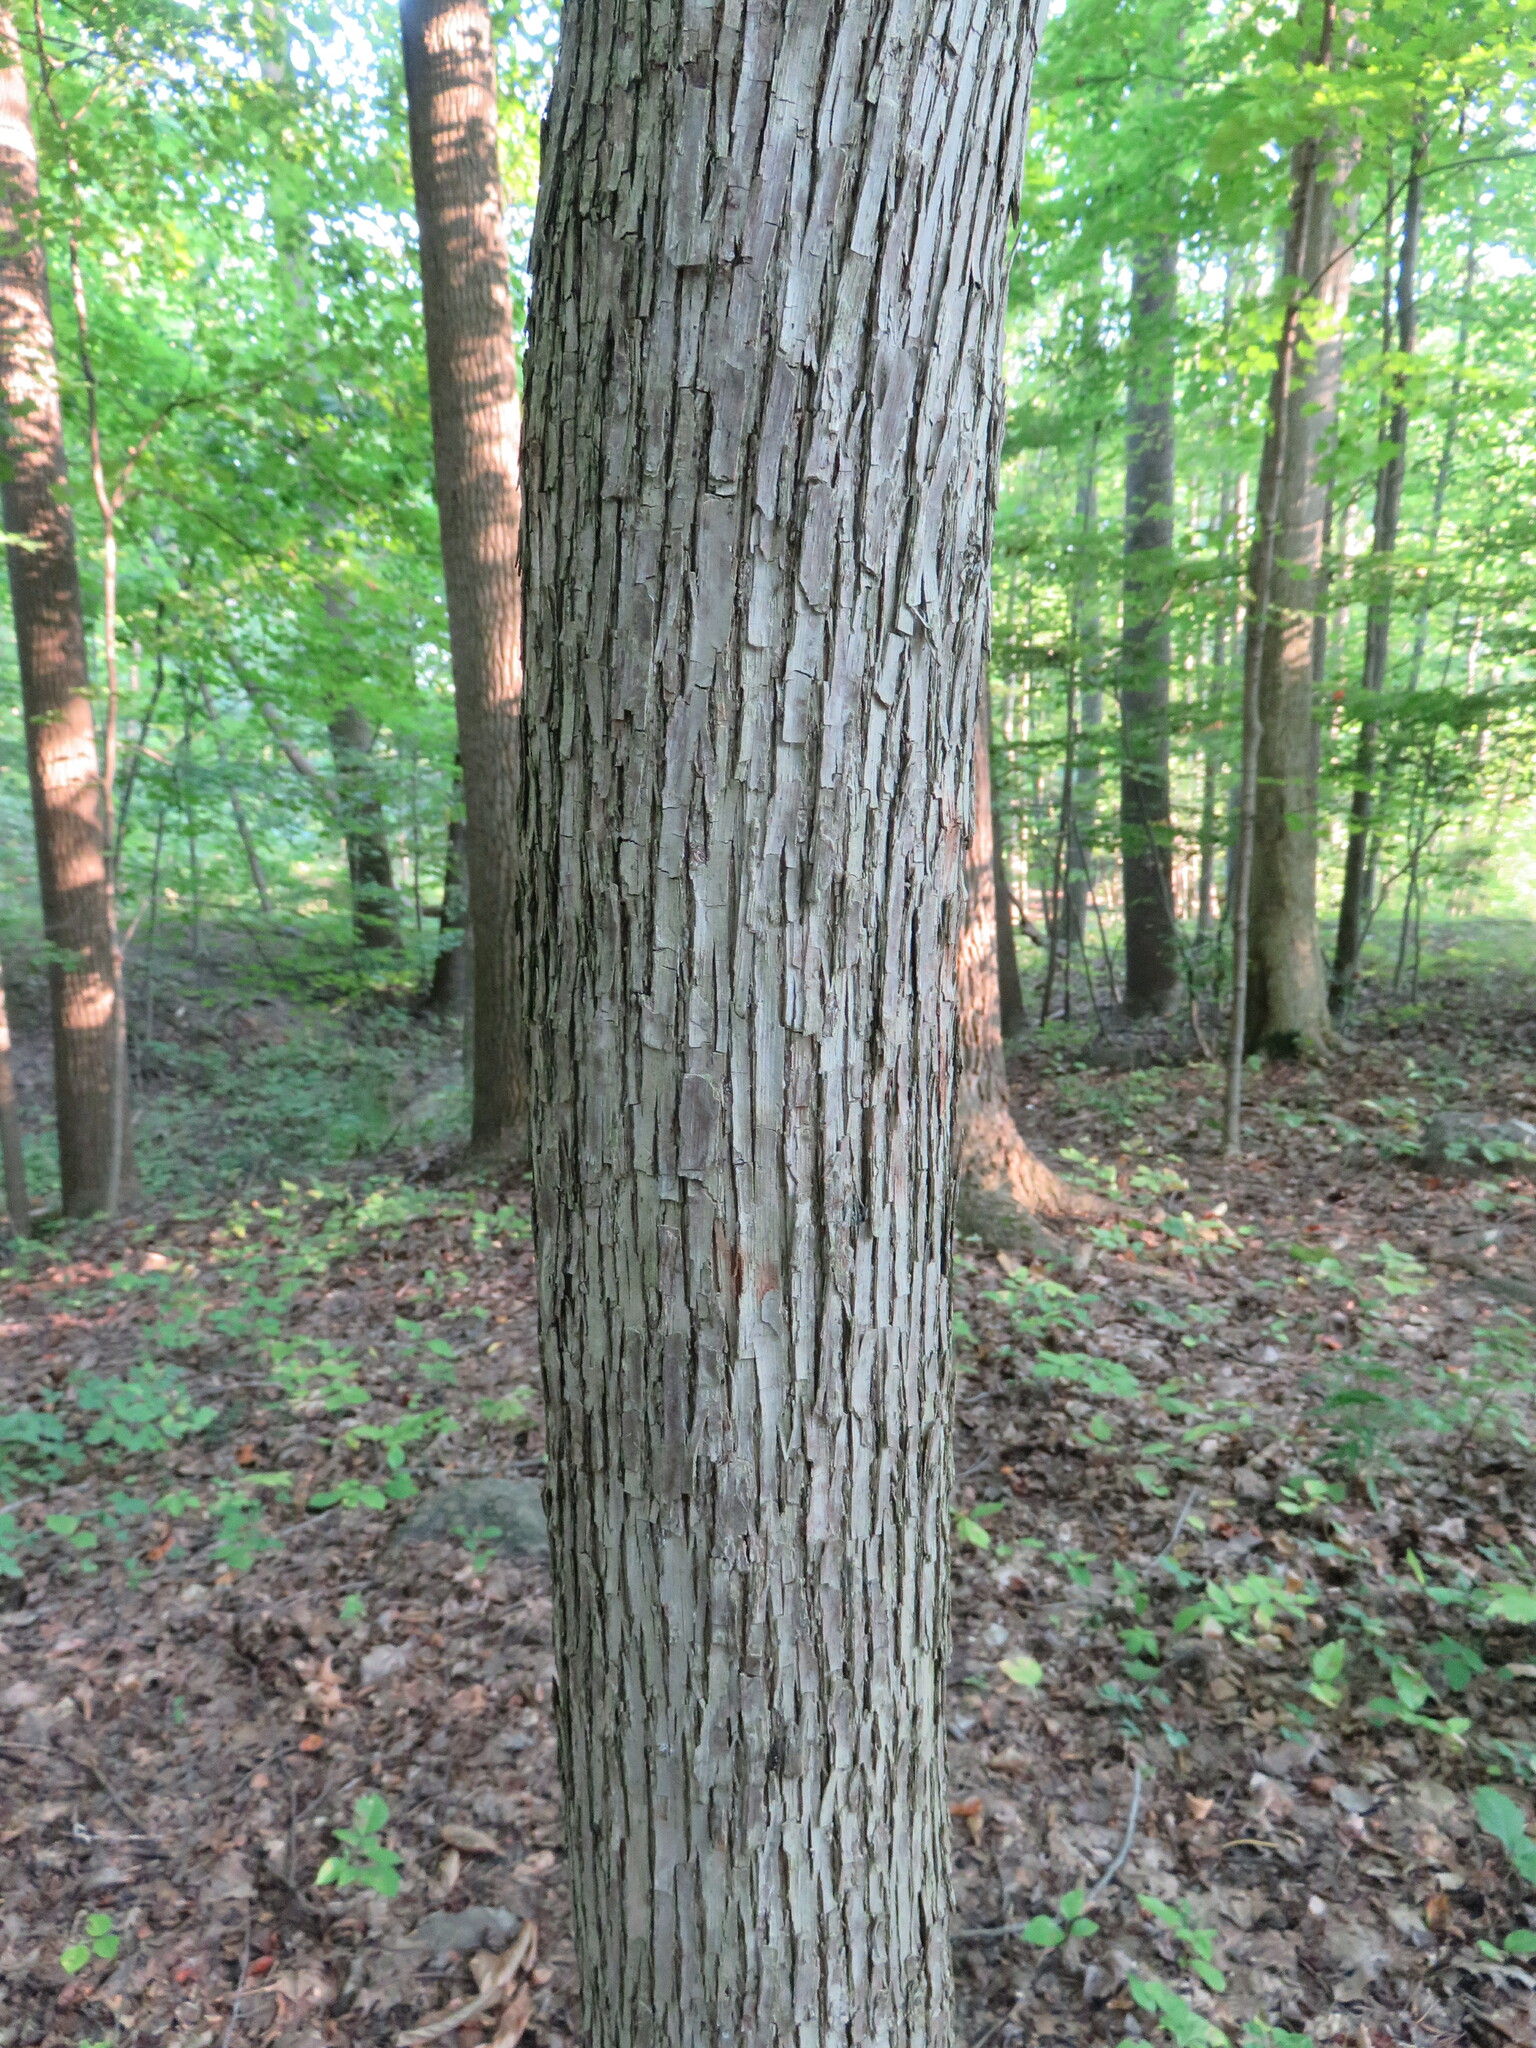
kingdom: Plantae
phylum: Tracheophyta
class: Magnoliopsida
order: Fagales
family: Betulaceae
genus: Ostrya
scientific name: Ostrya virginiana
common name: Ironwood
